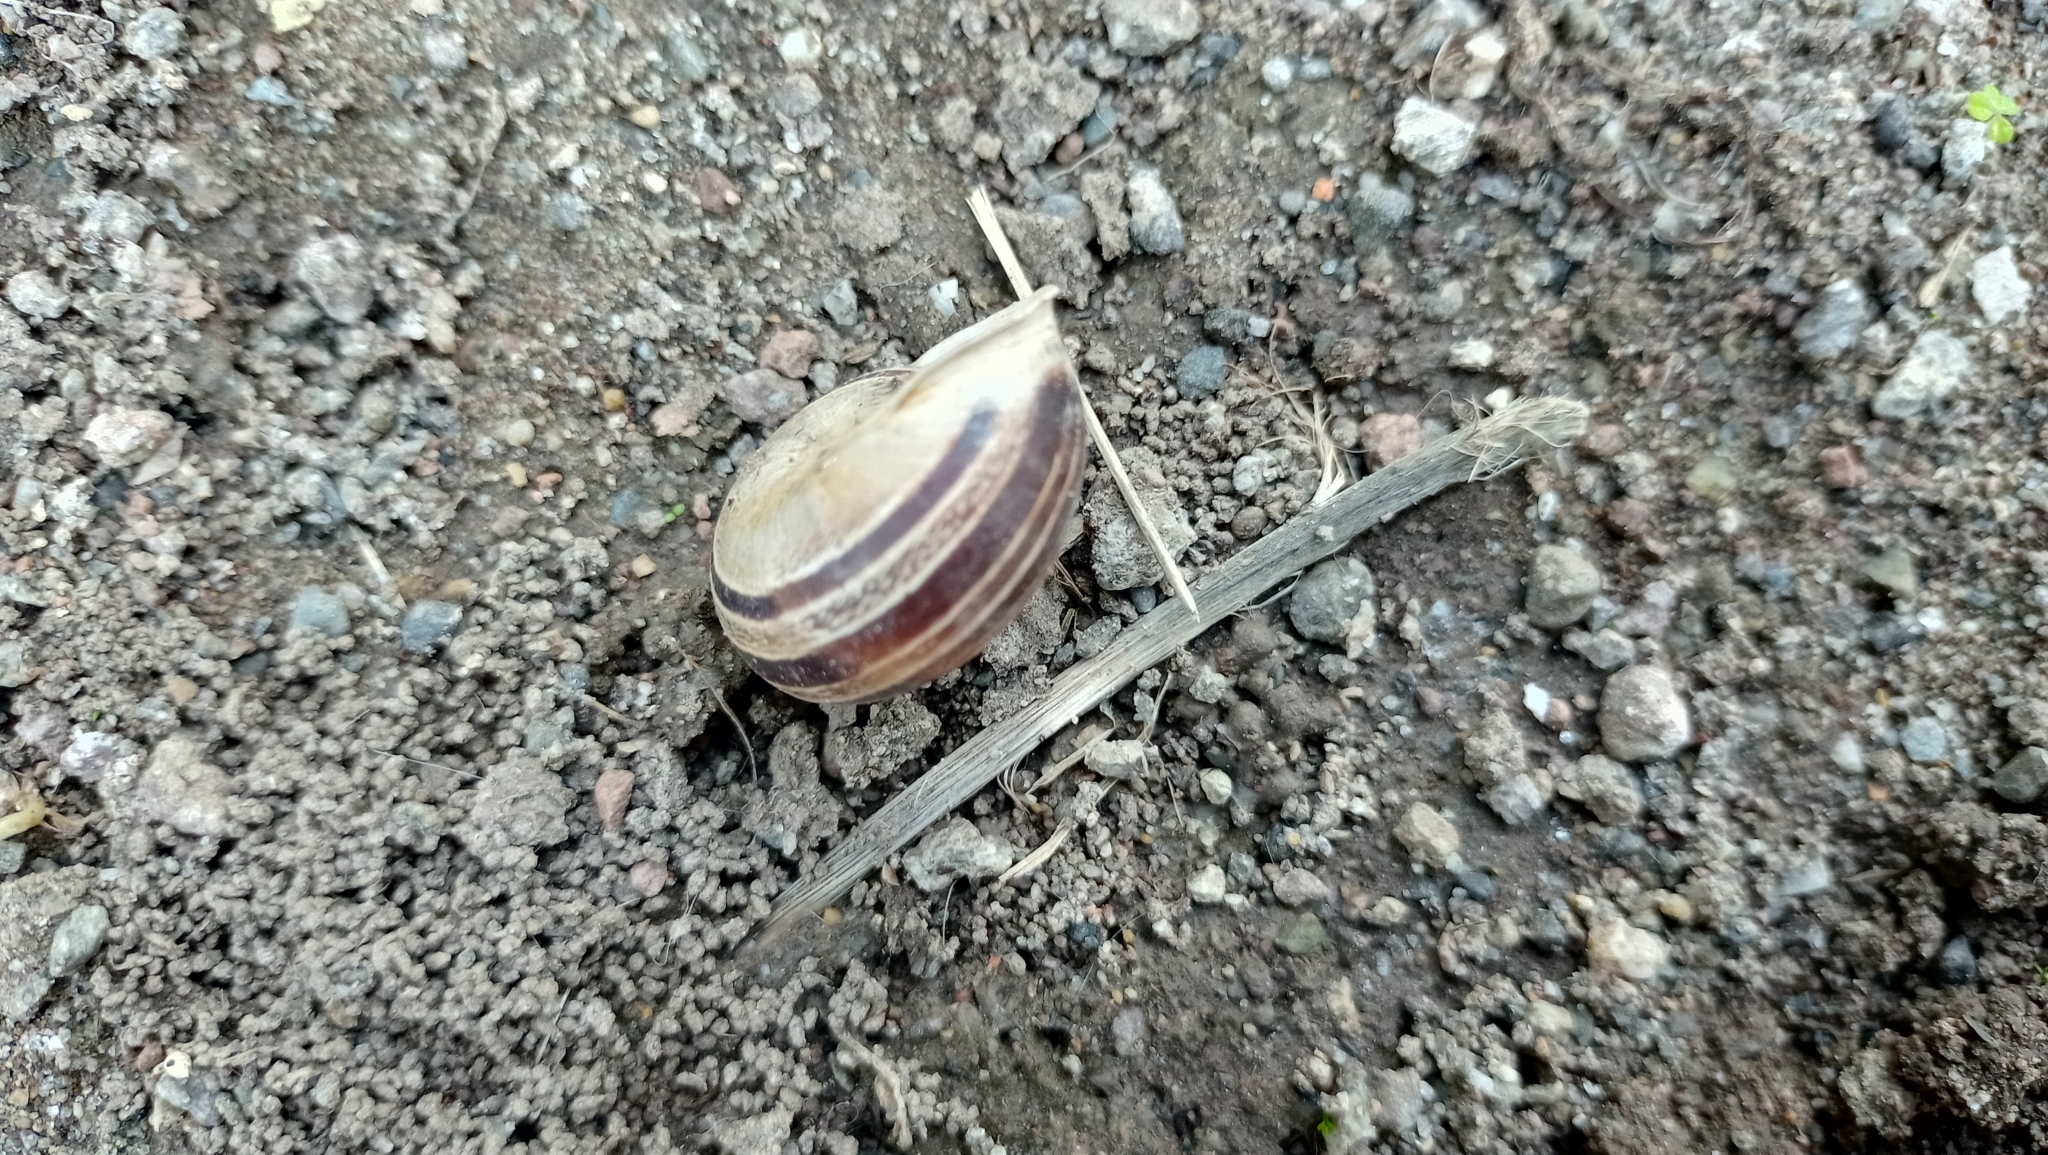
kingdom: Animalia
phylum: Mollusca
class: Gastropoda
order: Stylommatophora
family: Helicidae
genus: Eobania
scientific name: Eobania vermiculata
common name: Chocolateband snail
